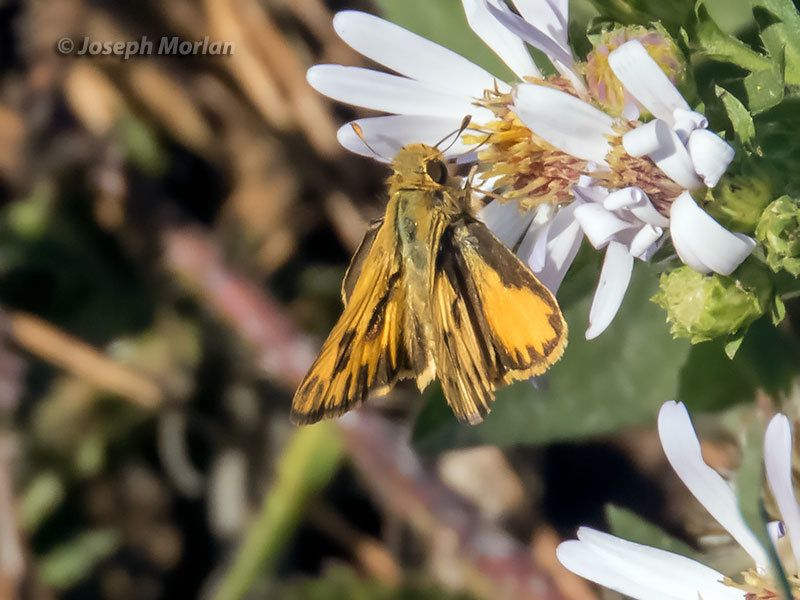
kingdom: Animalia
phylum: Arthropoda
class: Insecta
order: Lepidoptera
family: Hesperiidae
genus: Hylephila
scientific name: Hylephila phyleus
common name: Fiery skipper
